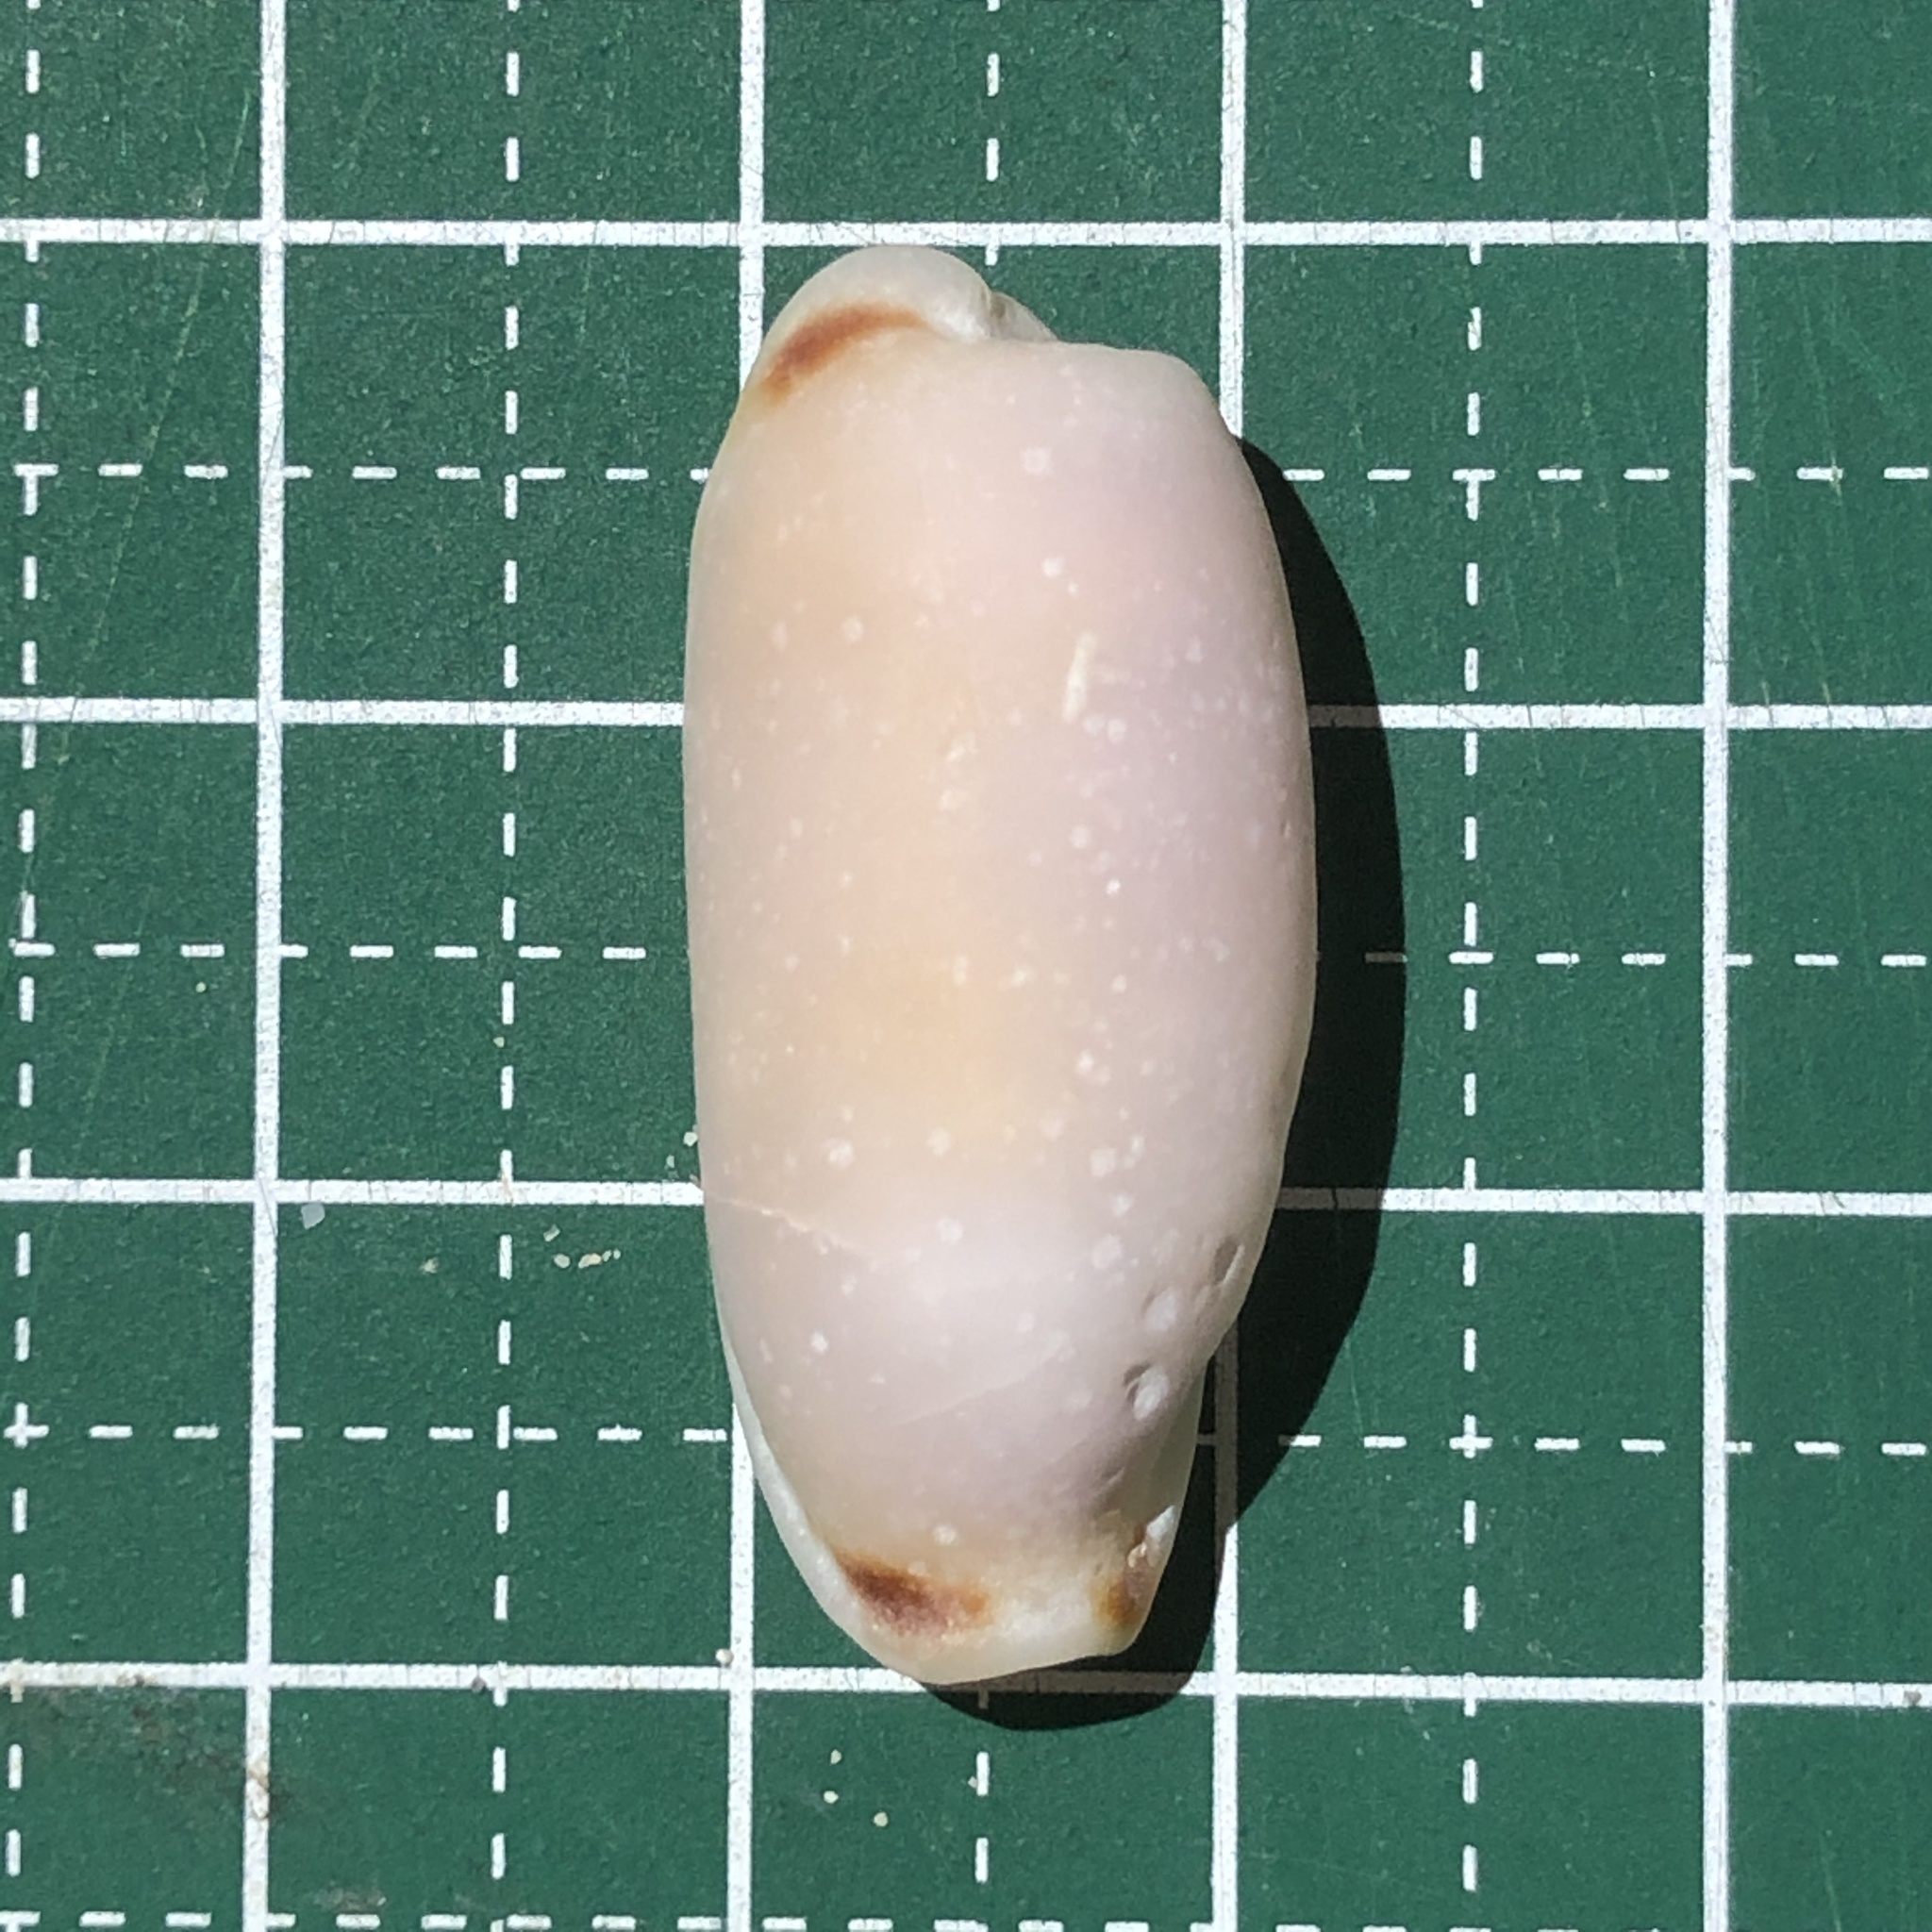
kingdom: Animalia
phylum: Mollusca
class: Gastropoda
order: Littorinimorpha
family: Cypraeidae
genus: Erronea
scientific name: Erronea cylindrica
